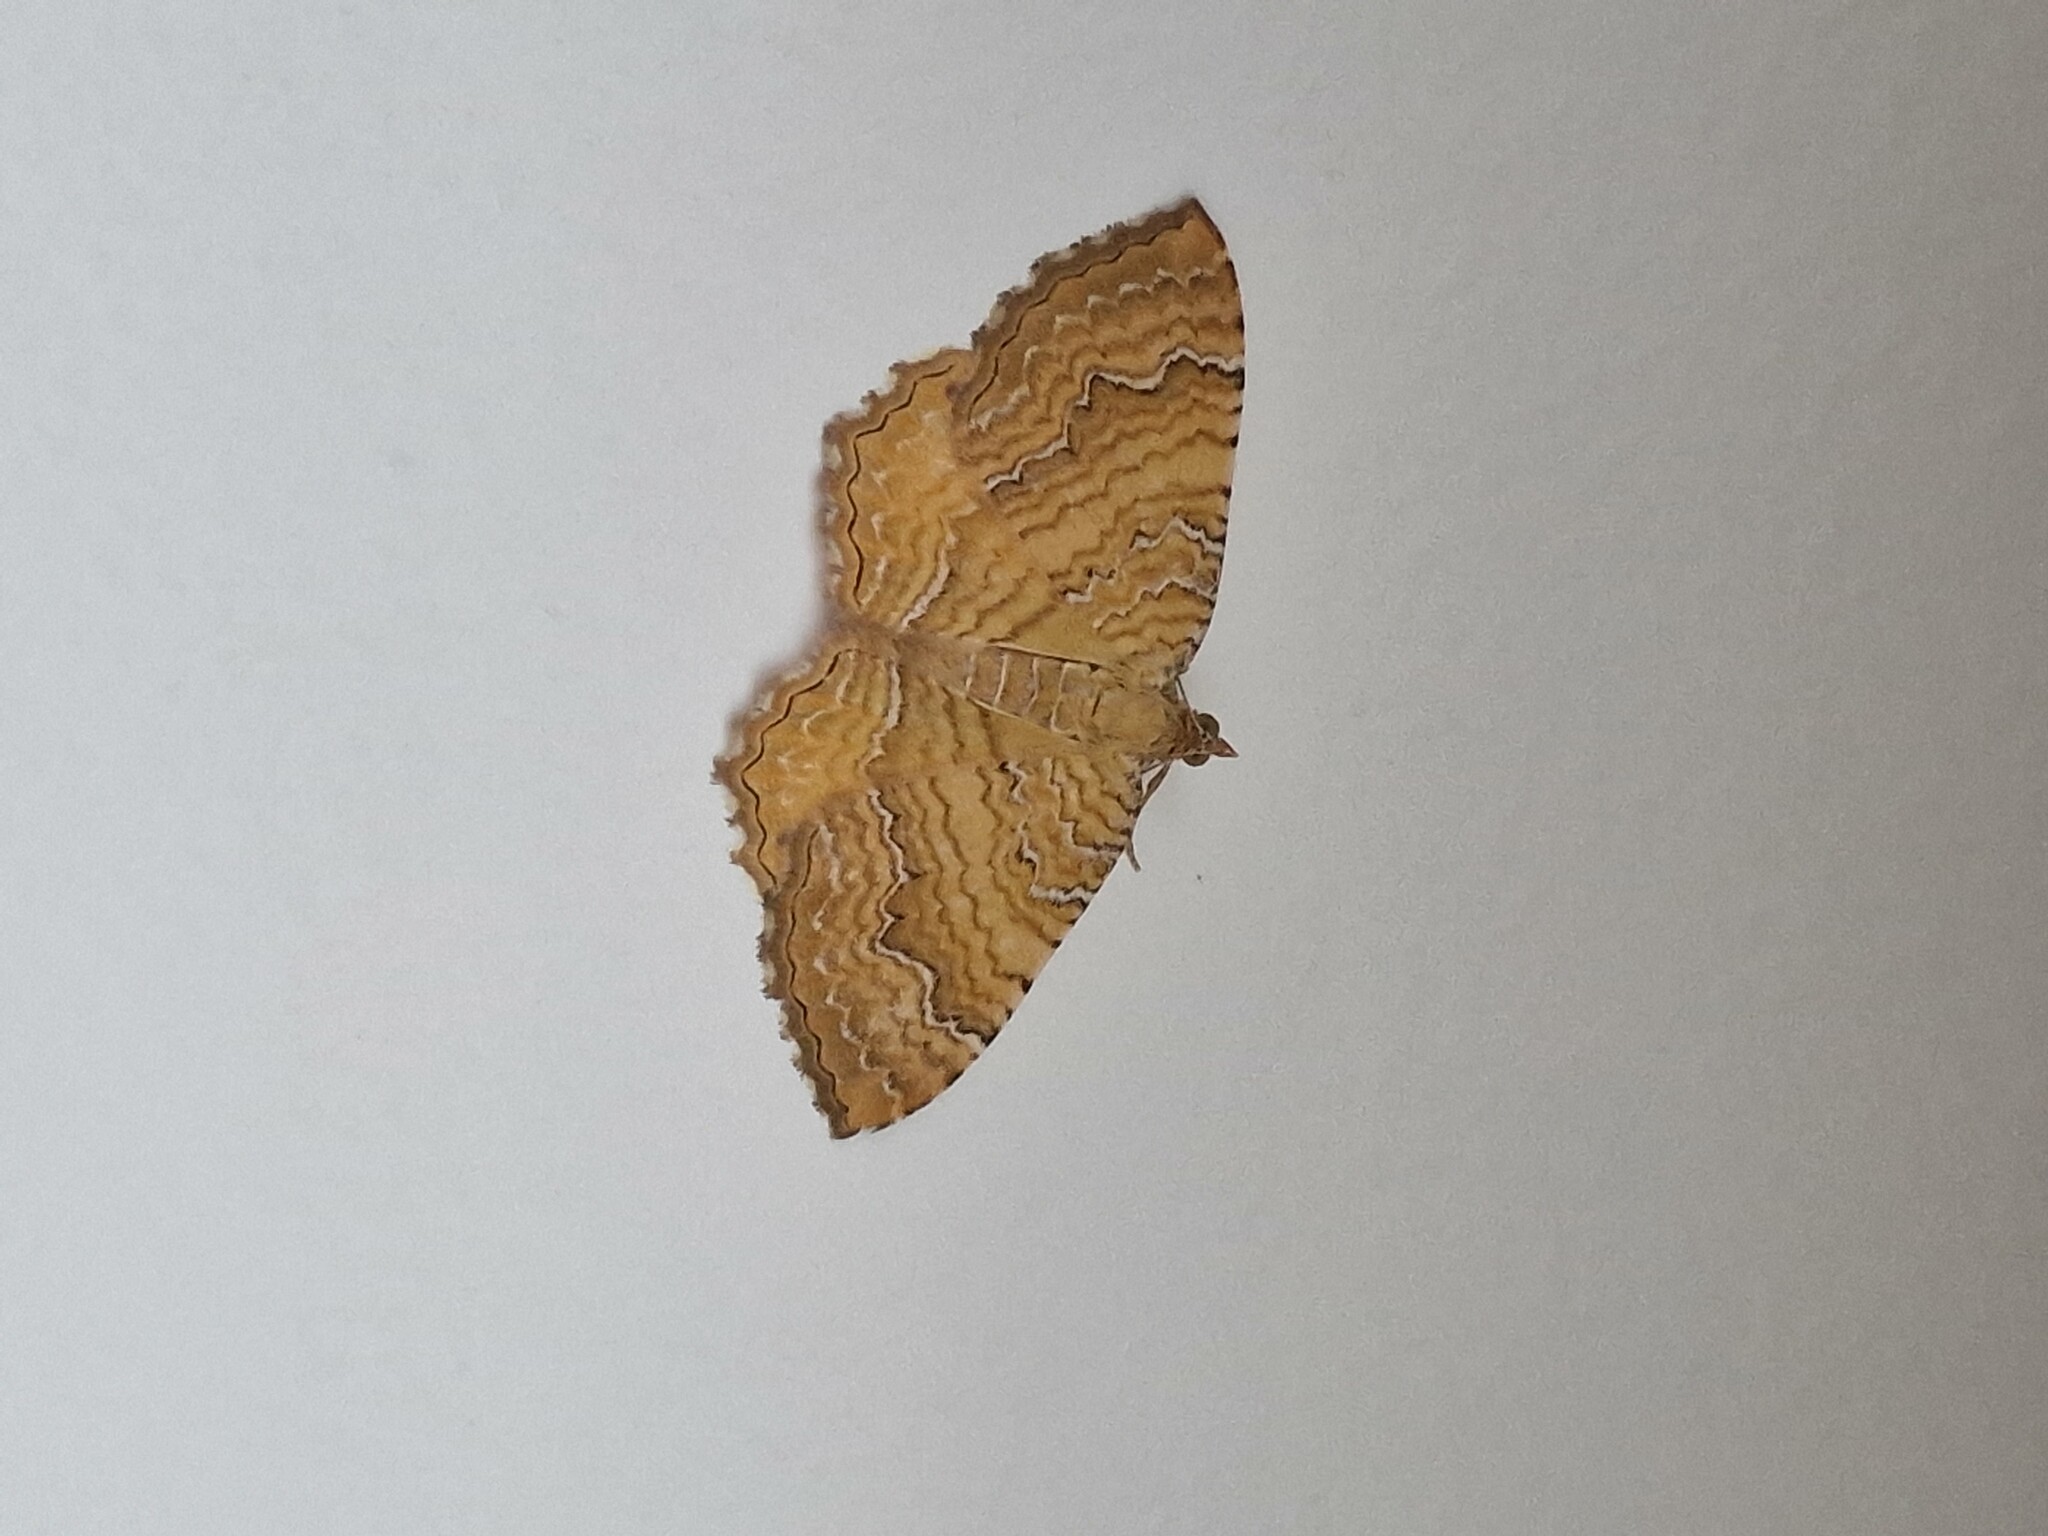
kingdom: Animalia
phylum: Arthropoda
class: Insecta
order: Lepidoptera
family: Geometridae
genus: Camptogramma
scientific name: Camptogramma bilineata
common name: Yellow shell
